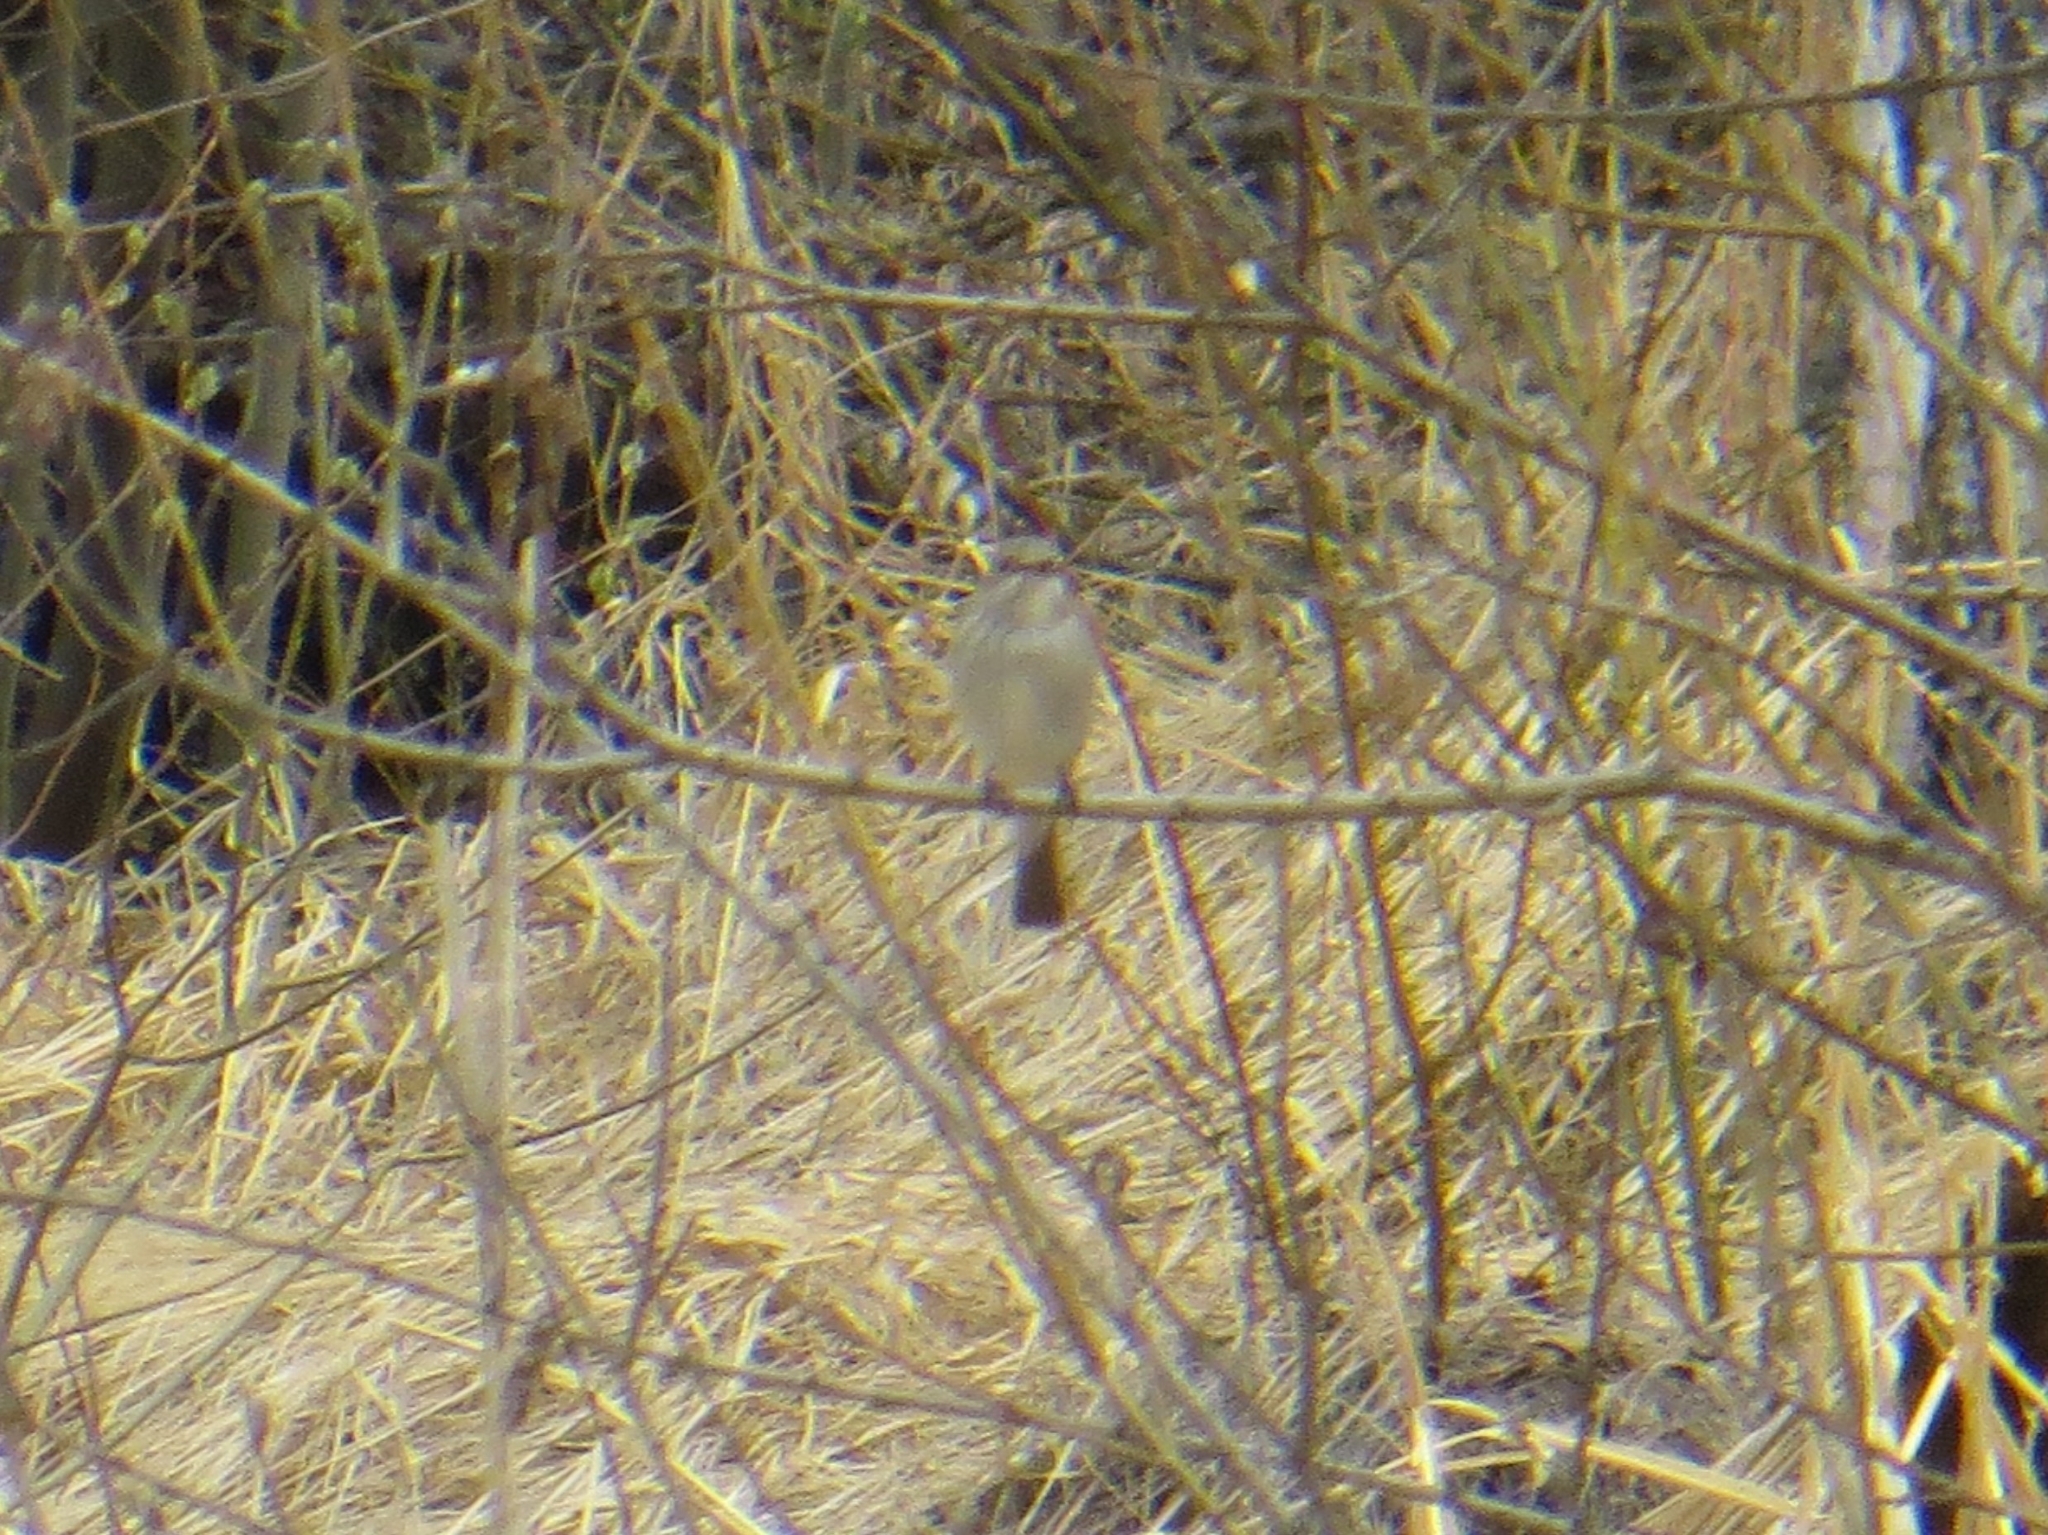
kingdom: Animalia
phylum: Chordata
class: Aves
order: Passeriformes
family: Muscicapidae
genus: Muscicapa
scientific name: Muscicapa striata
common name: Spotted flycatcher
